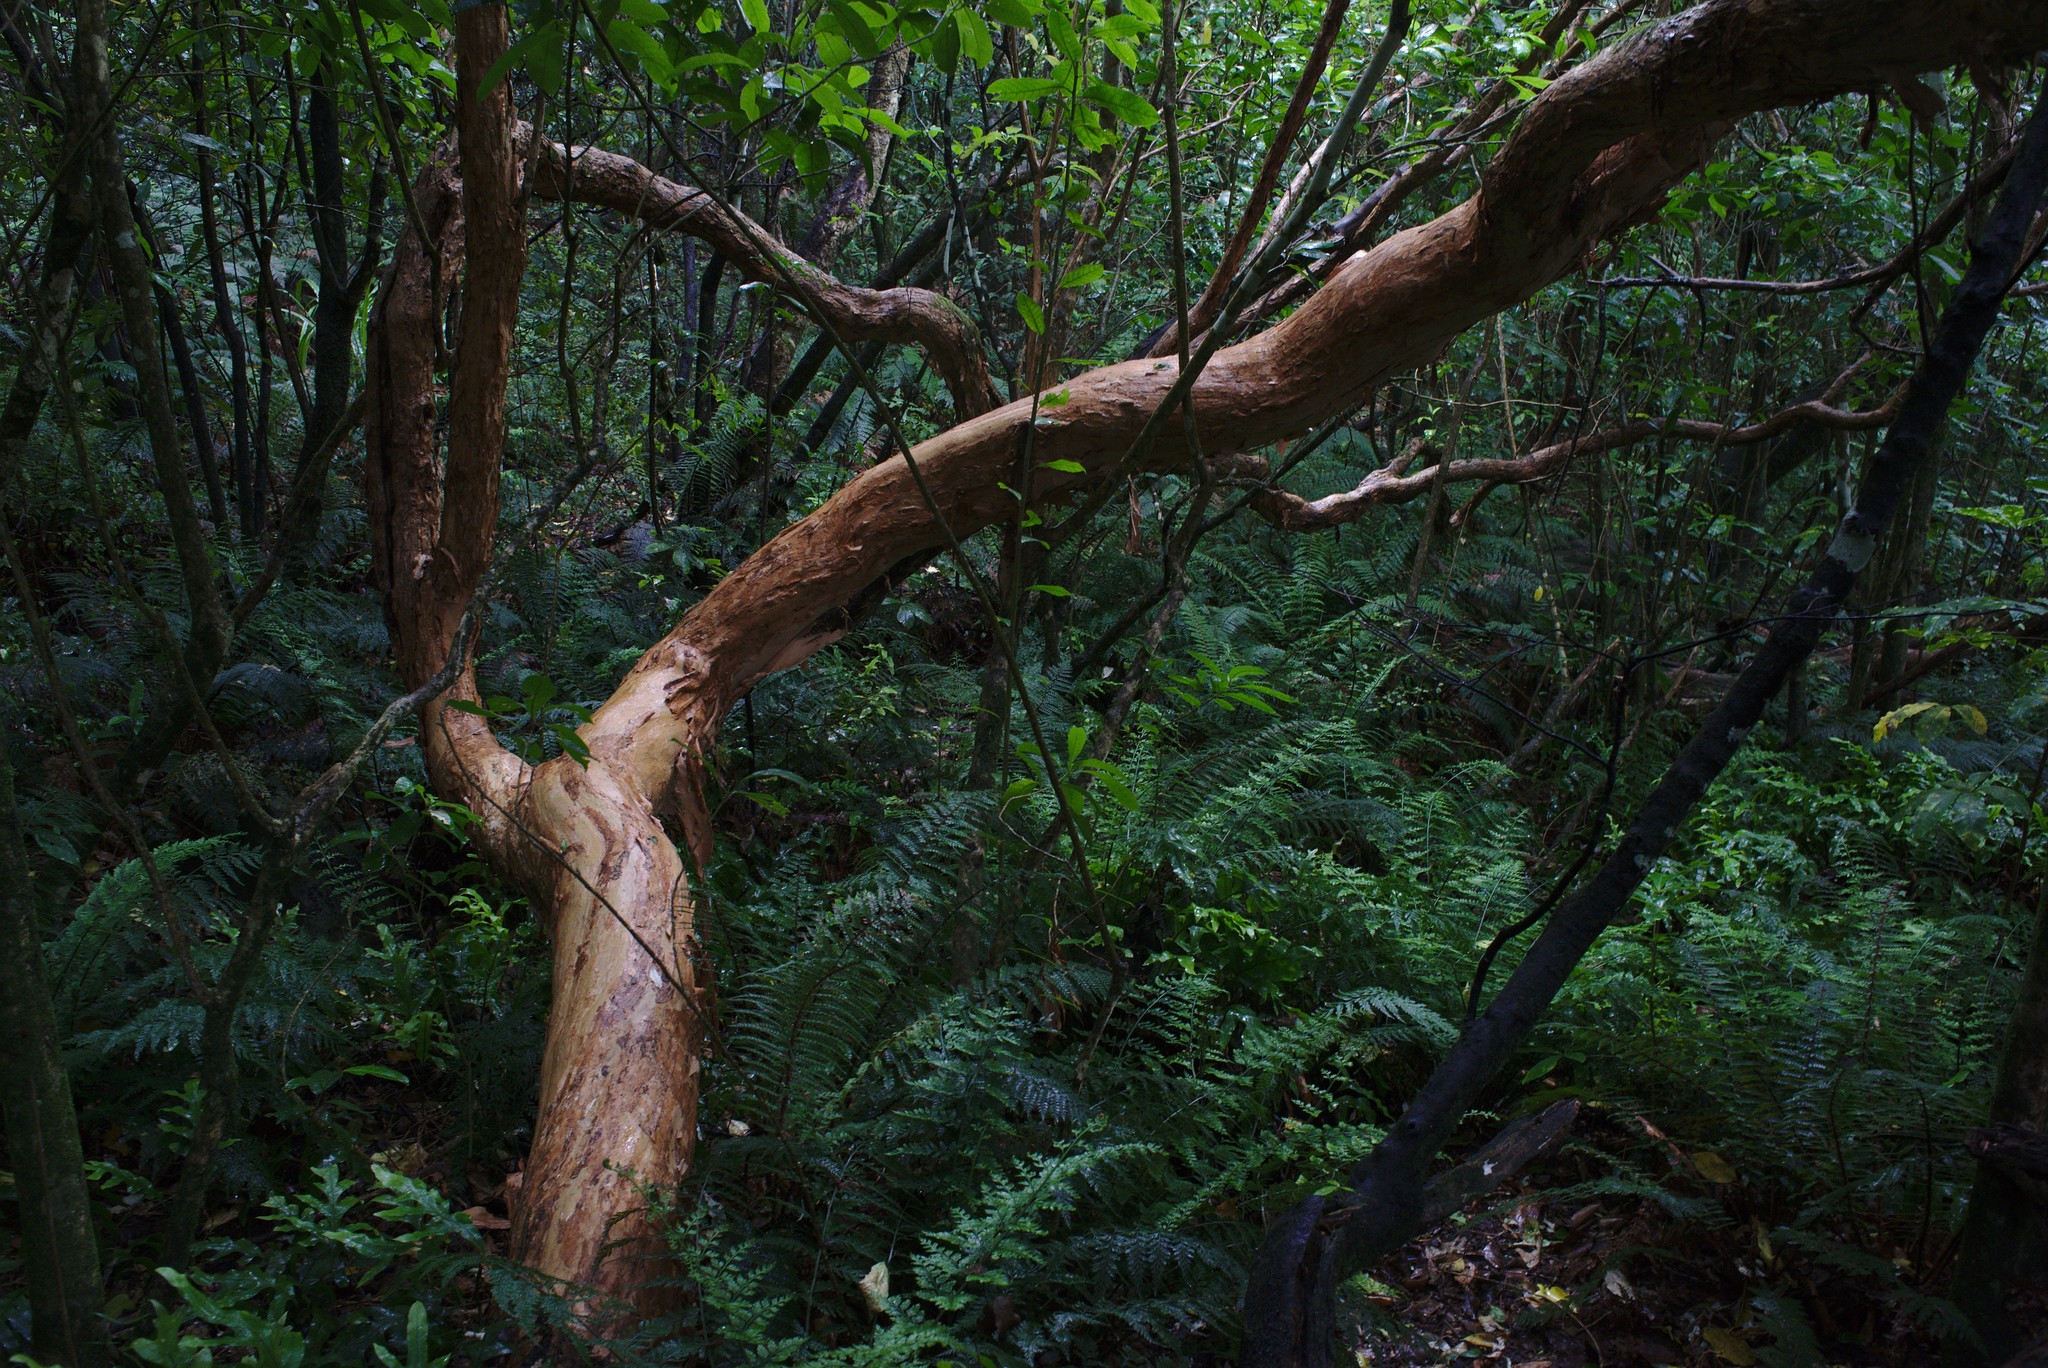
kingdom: Plantae
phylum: Tracheophyta
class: Magnoliopsida
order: Myrtales
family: Onagraceae
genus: Fuchsia
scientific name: Fuchsia excorticata
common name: Tree fuchsia
